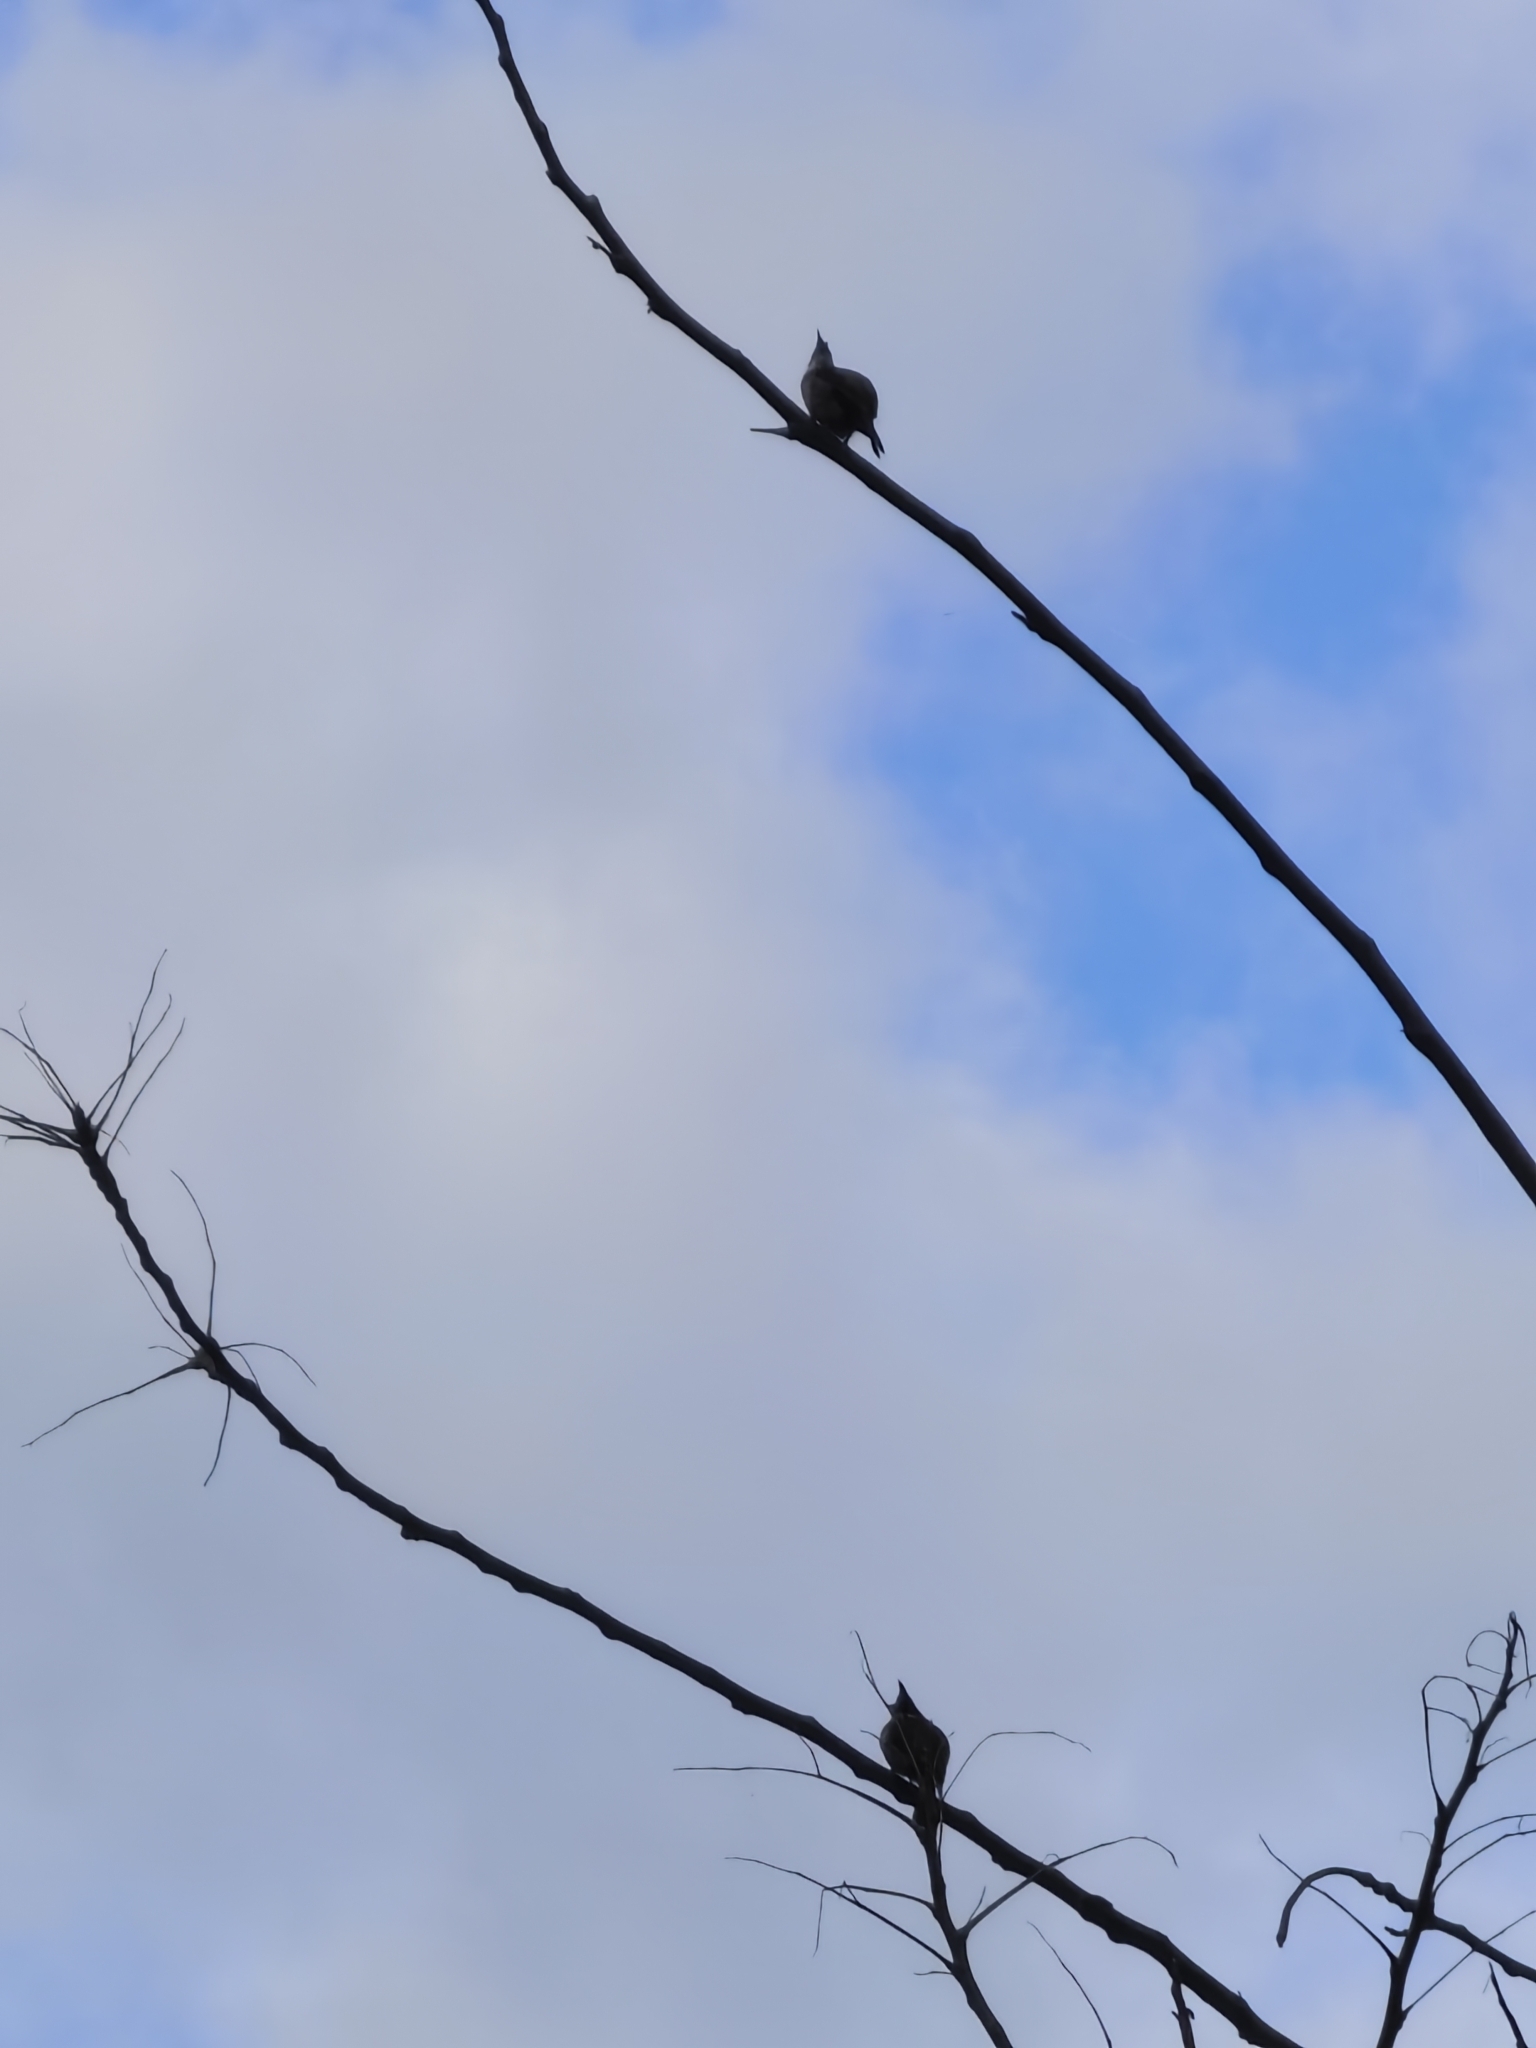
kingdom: Animalia
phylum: Chordata
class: Aves
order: Passeriformes
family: Pycnonotidae
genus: Pycnonotus
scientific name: Pycnonotus jocosus
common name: Red-whiskered bulbul
